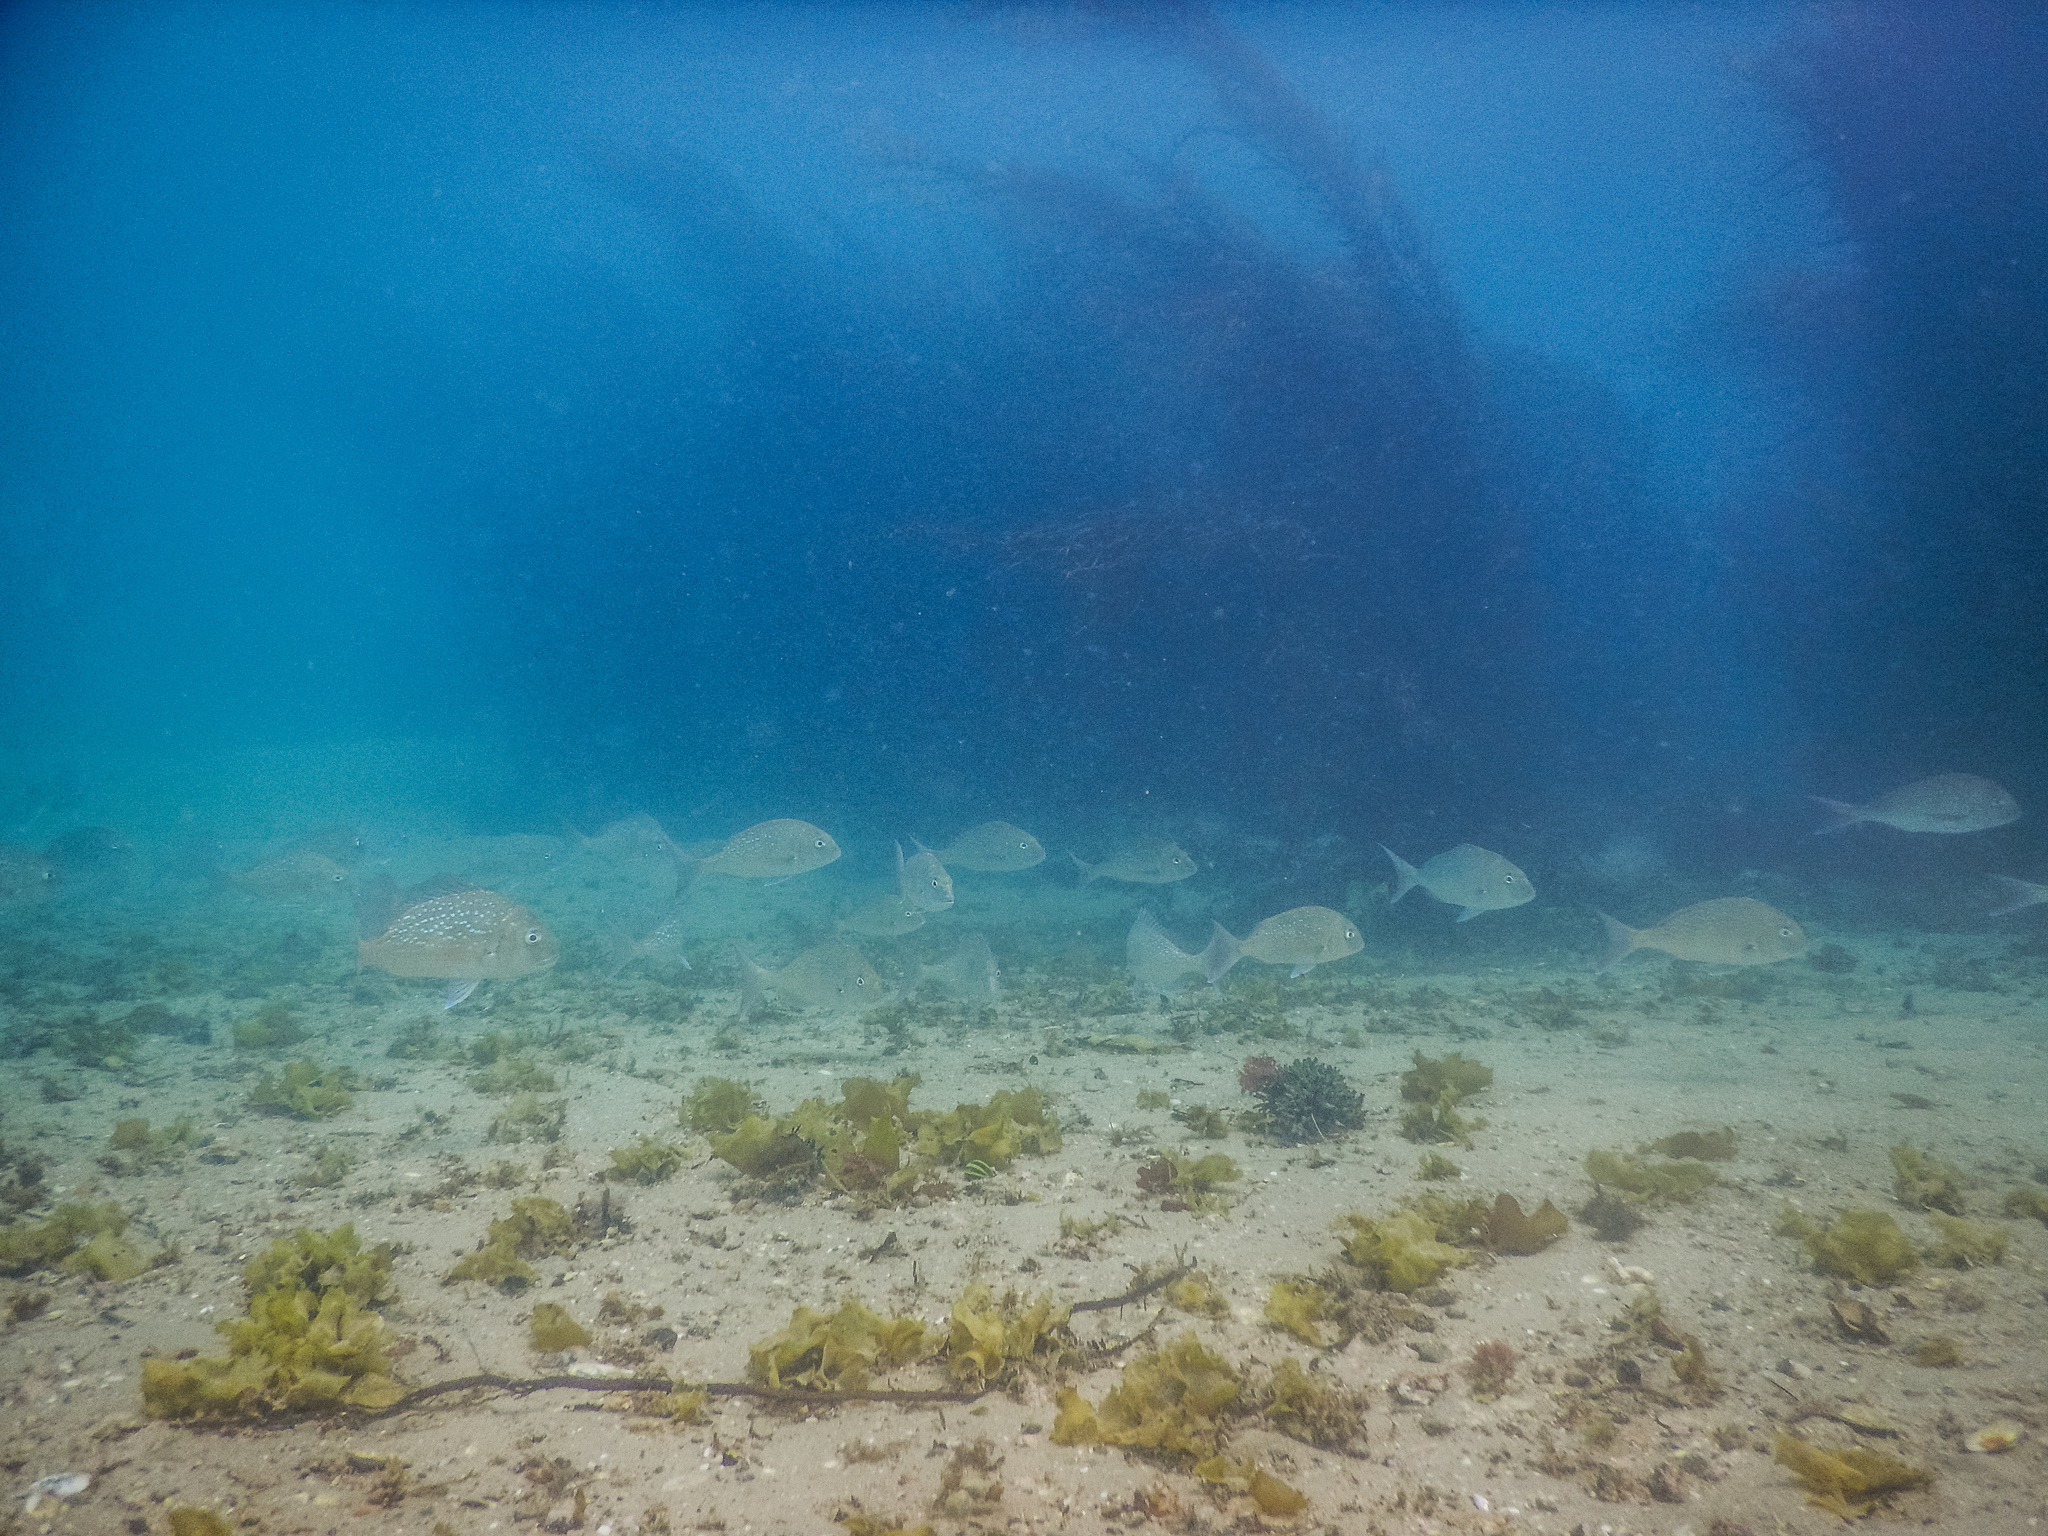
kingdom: Animalia
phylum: Chordata
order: Perciformes
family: Sparidae
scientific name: Sparidae
